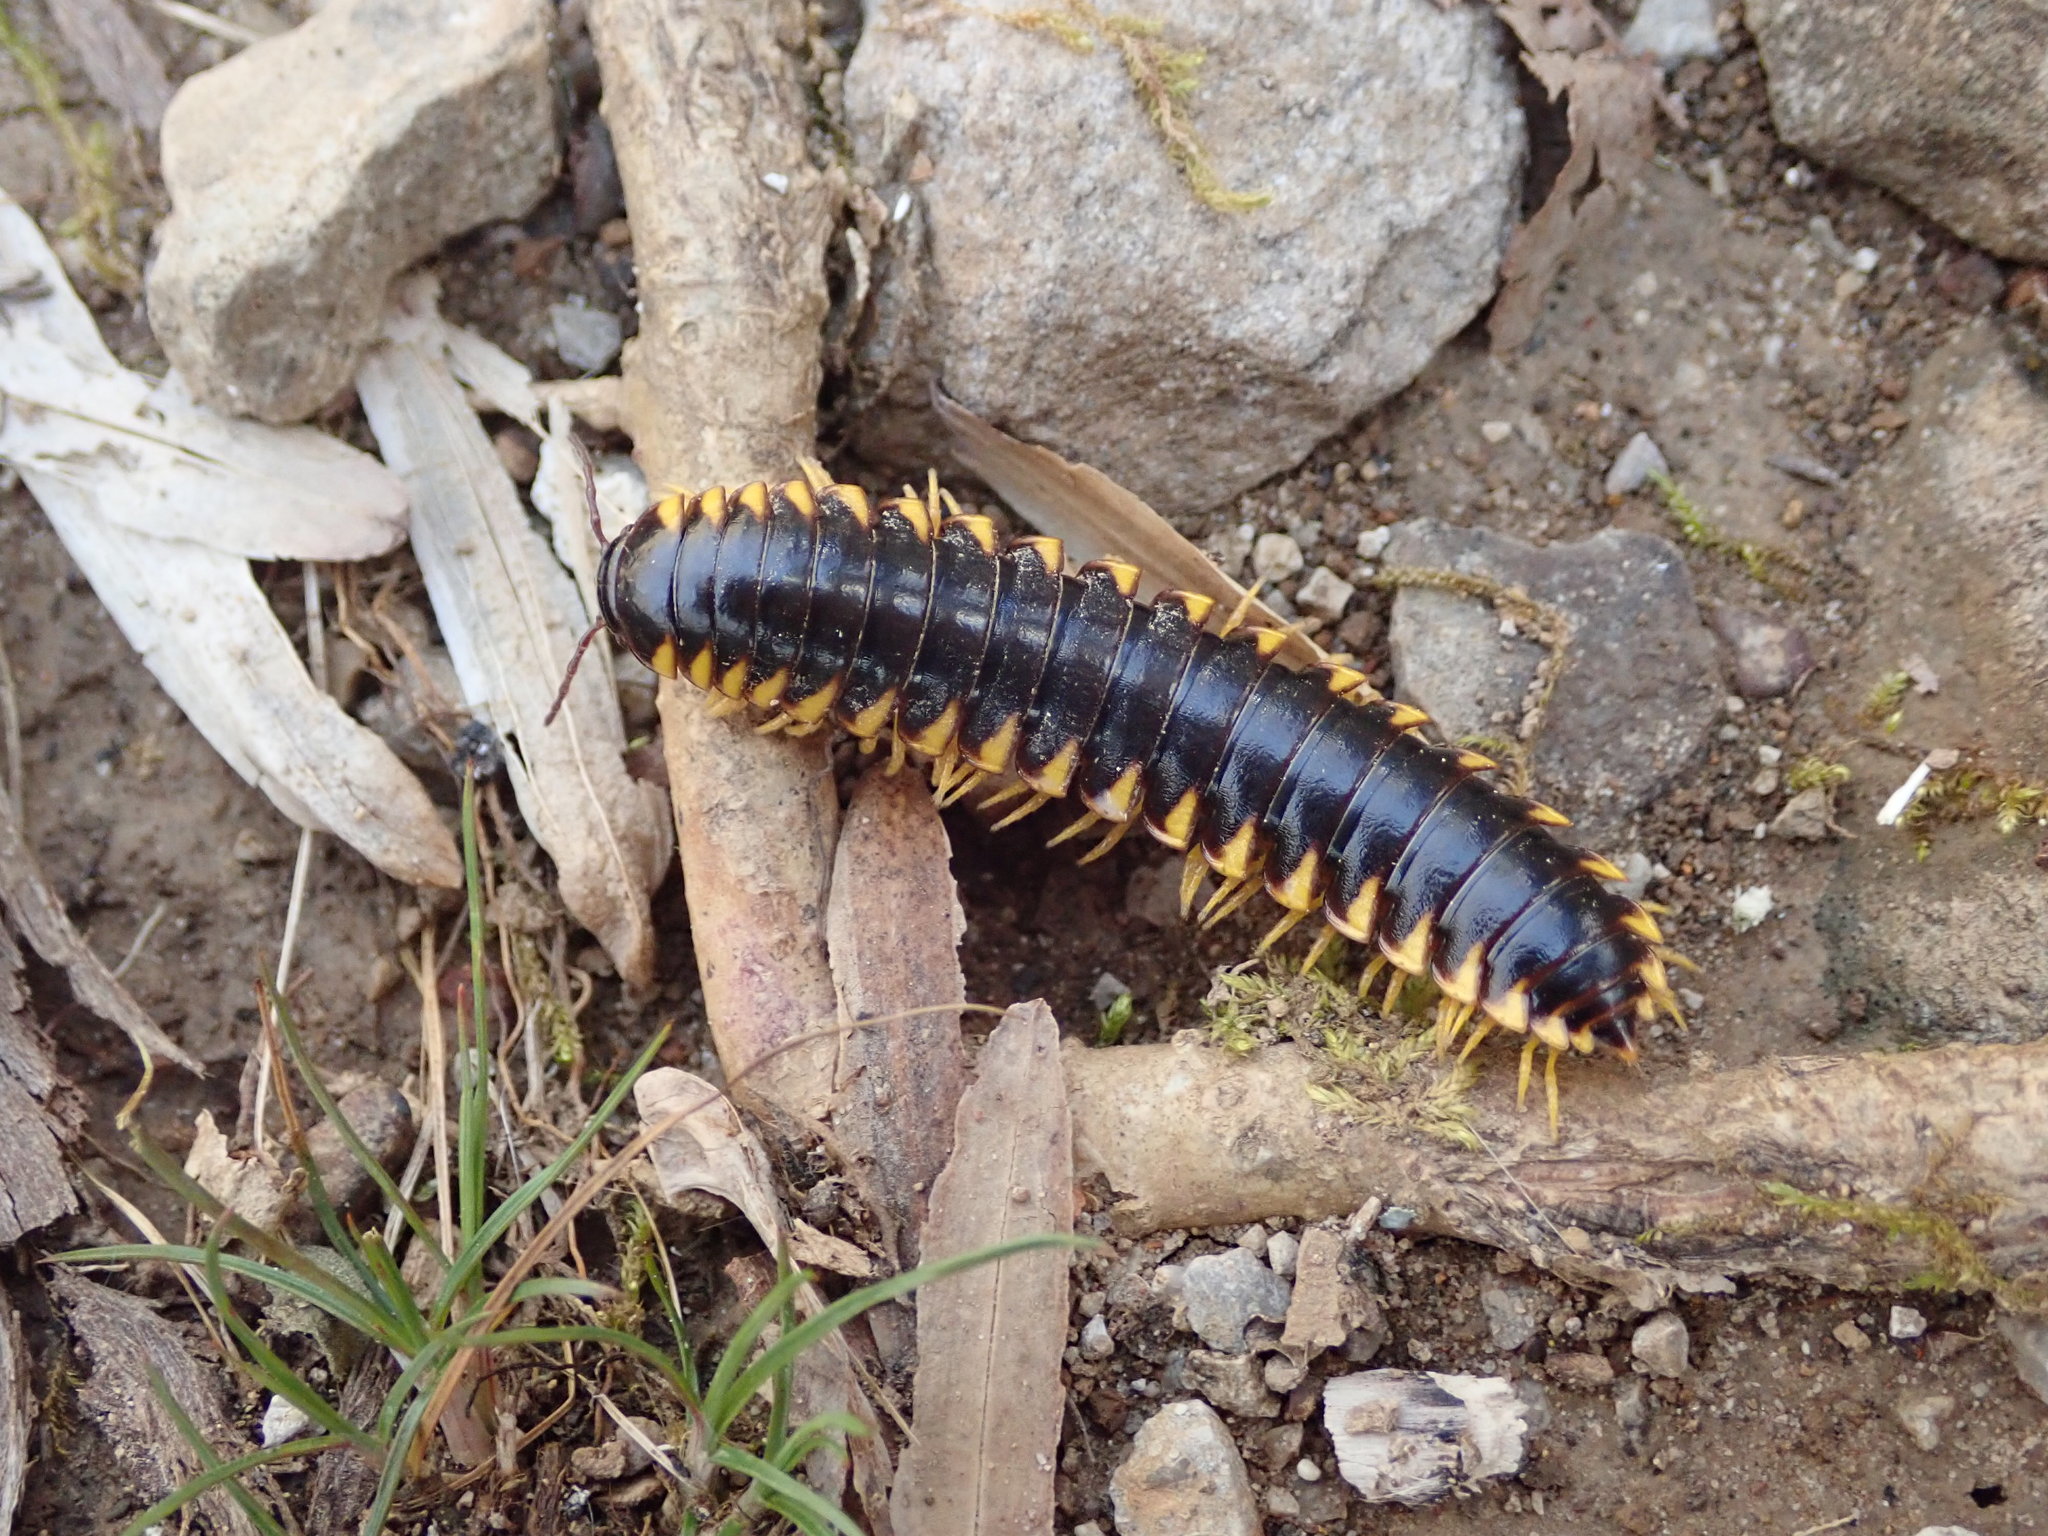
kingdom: Animalia
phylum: Arthropoda
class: Diplopoda
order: Polydesmida
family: Xystodesmidae
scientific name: Xystodesmidae
